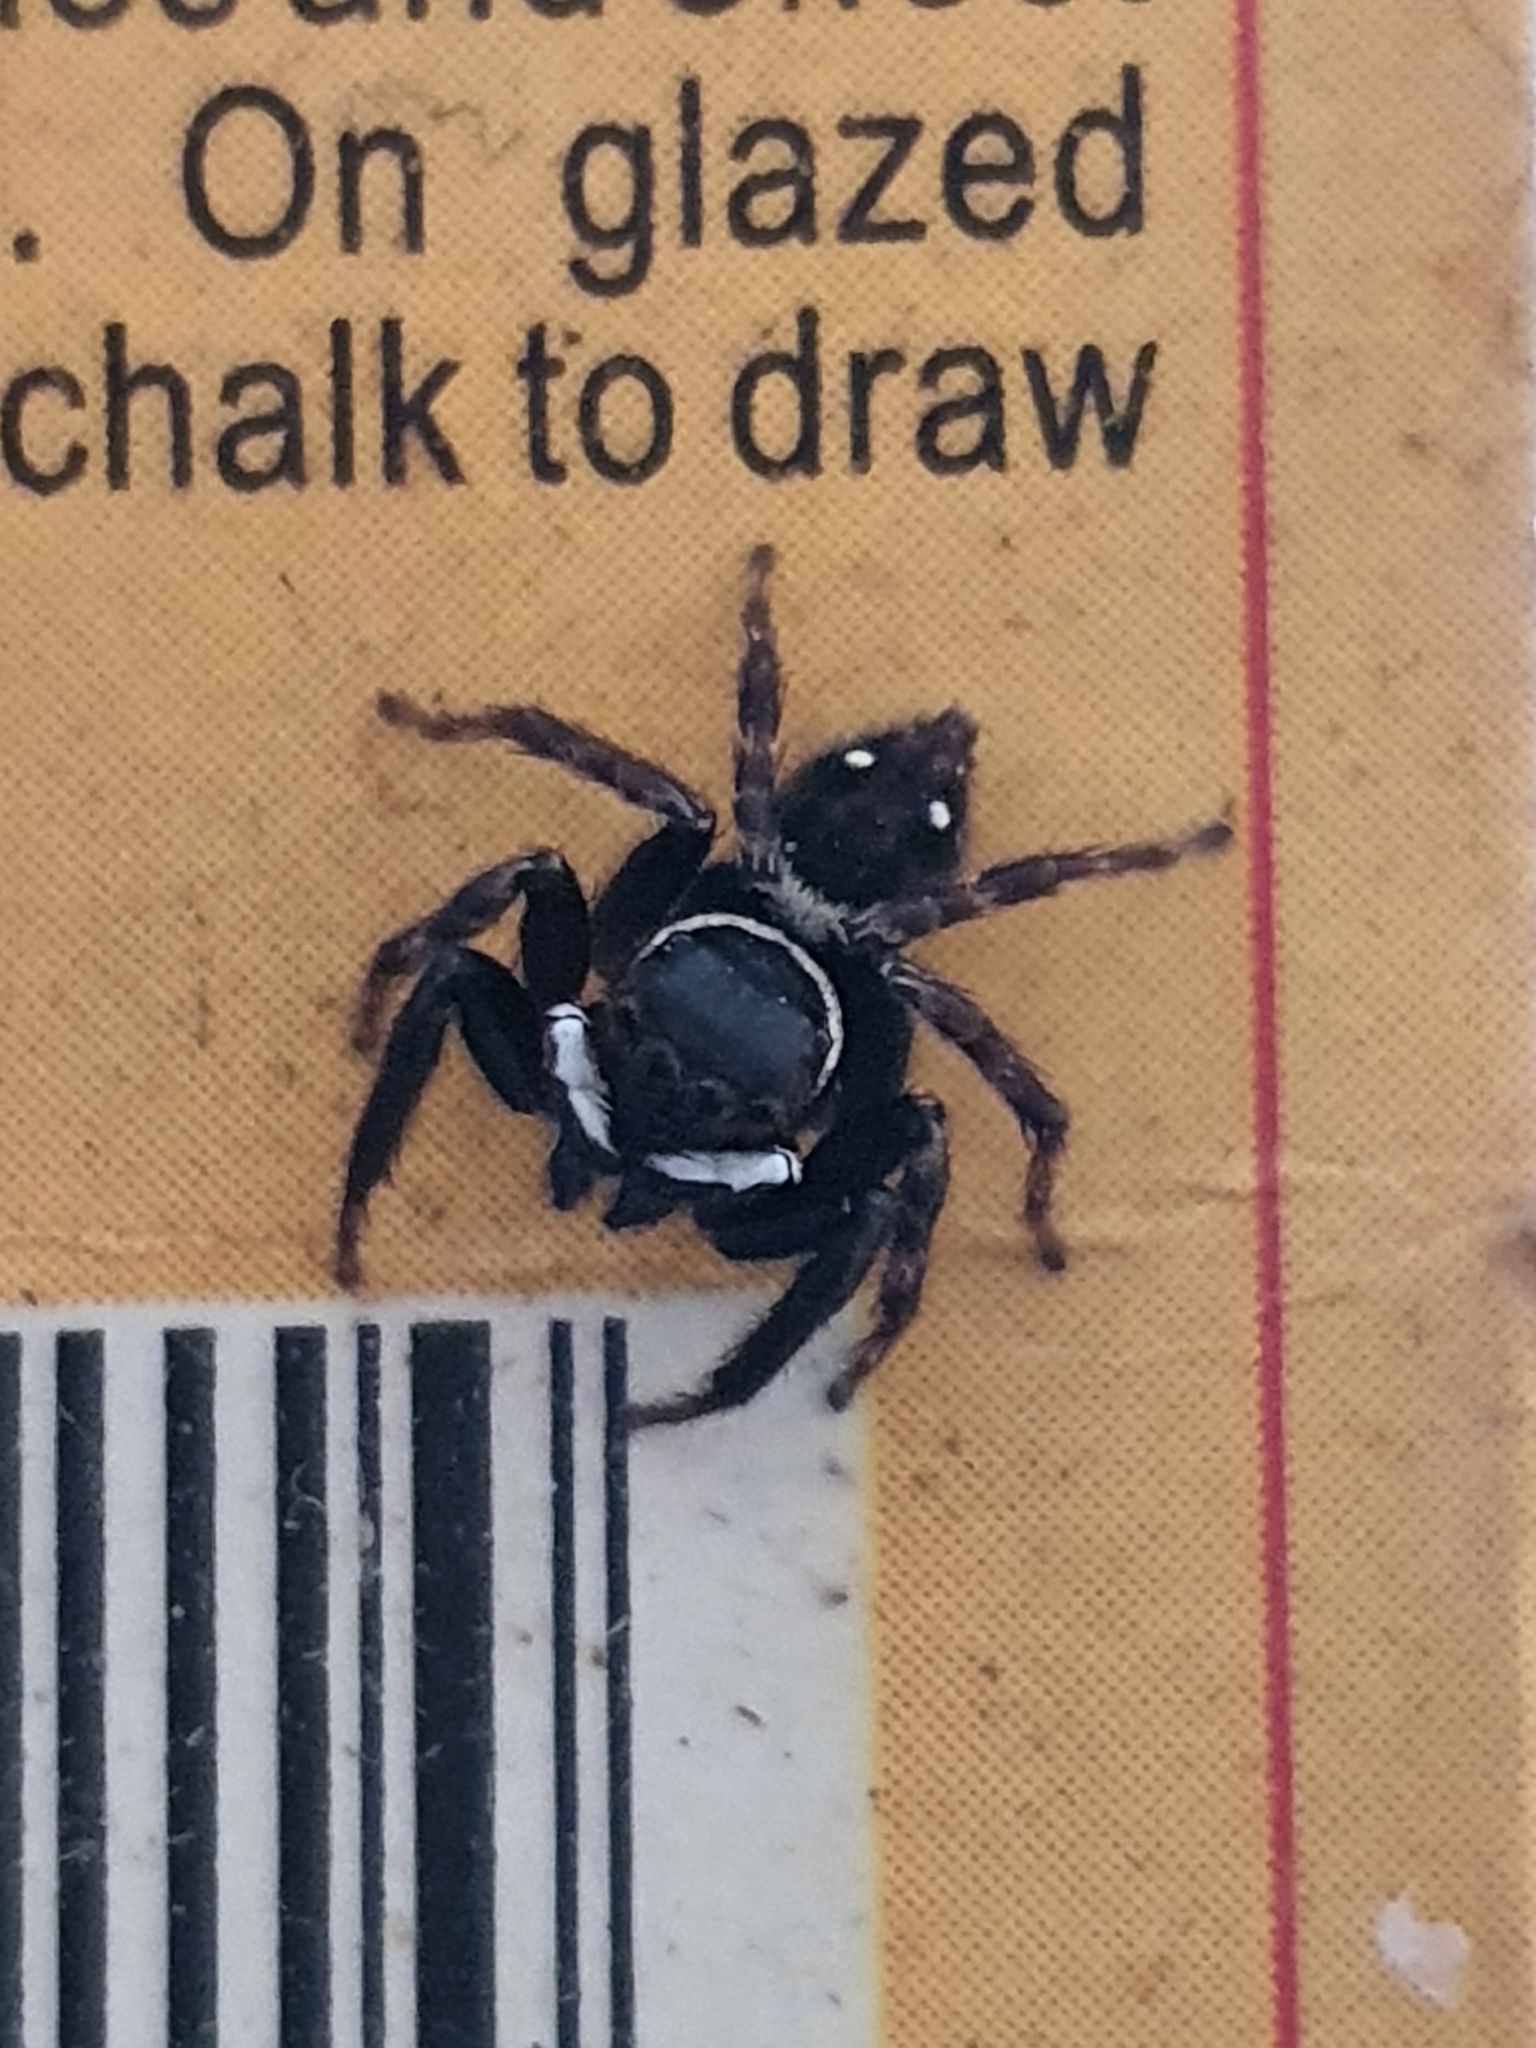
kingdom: Animalia
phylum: Arthropoda
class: Arachnida
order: Araneae
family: Salticidae
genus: Hasarius
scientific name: Hasarius adansoni
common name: Jumping spider
